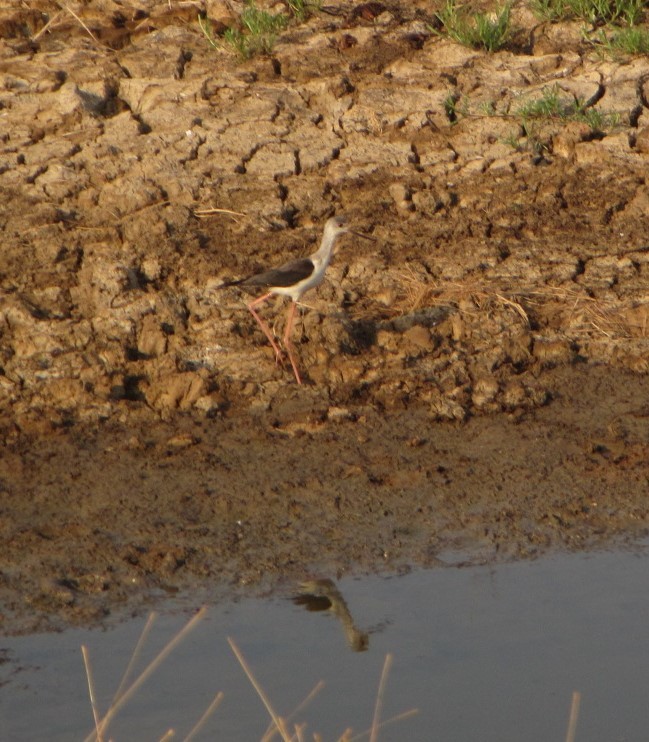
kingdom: Animalia
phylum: Chordata
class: Aves
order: Charadriiformes
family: Recurvirostridae
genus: Himantopus
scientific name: Himantopus himantopus
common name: Black-winged stilt
